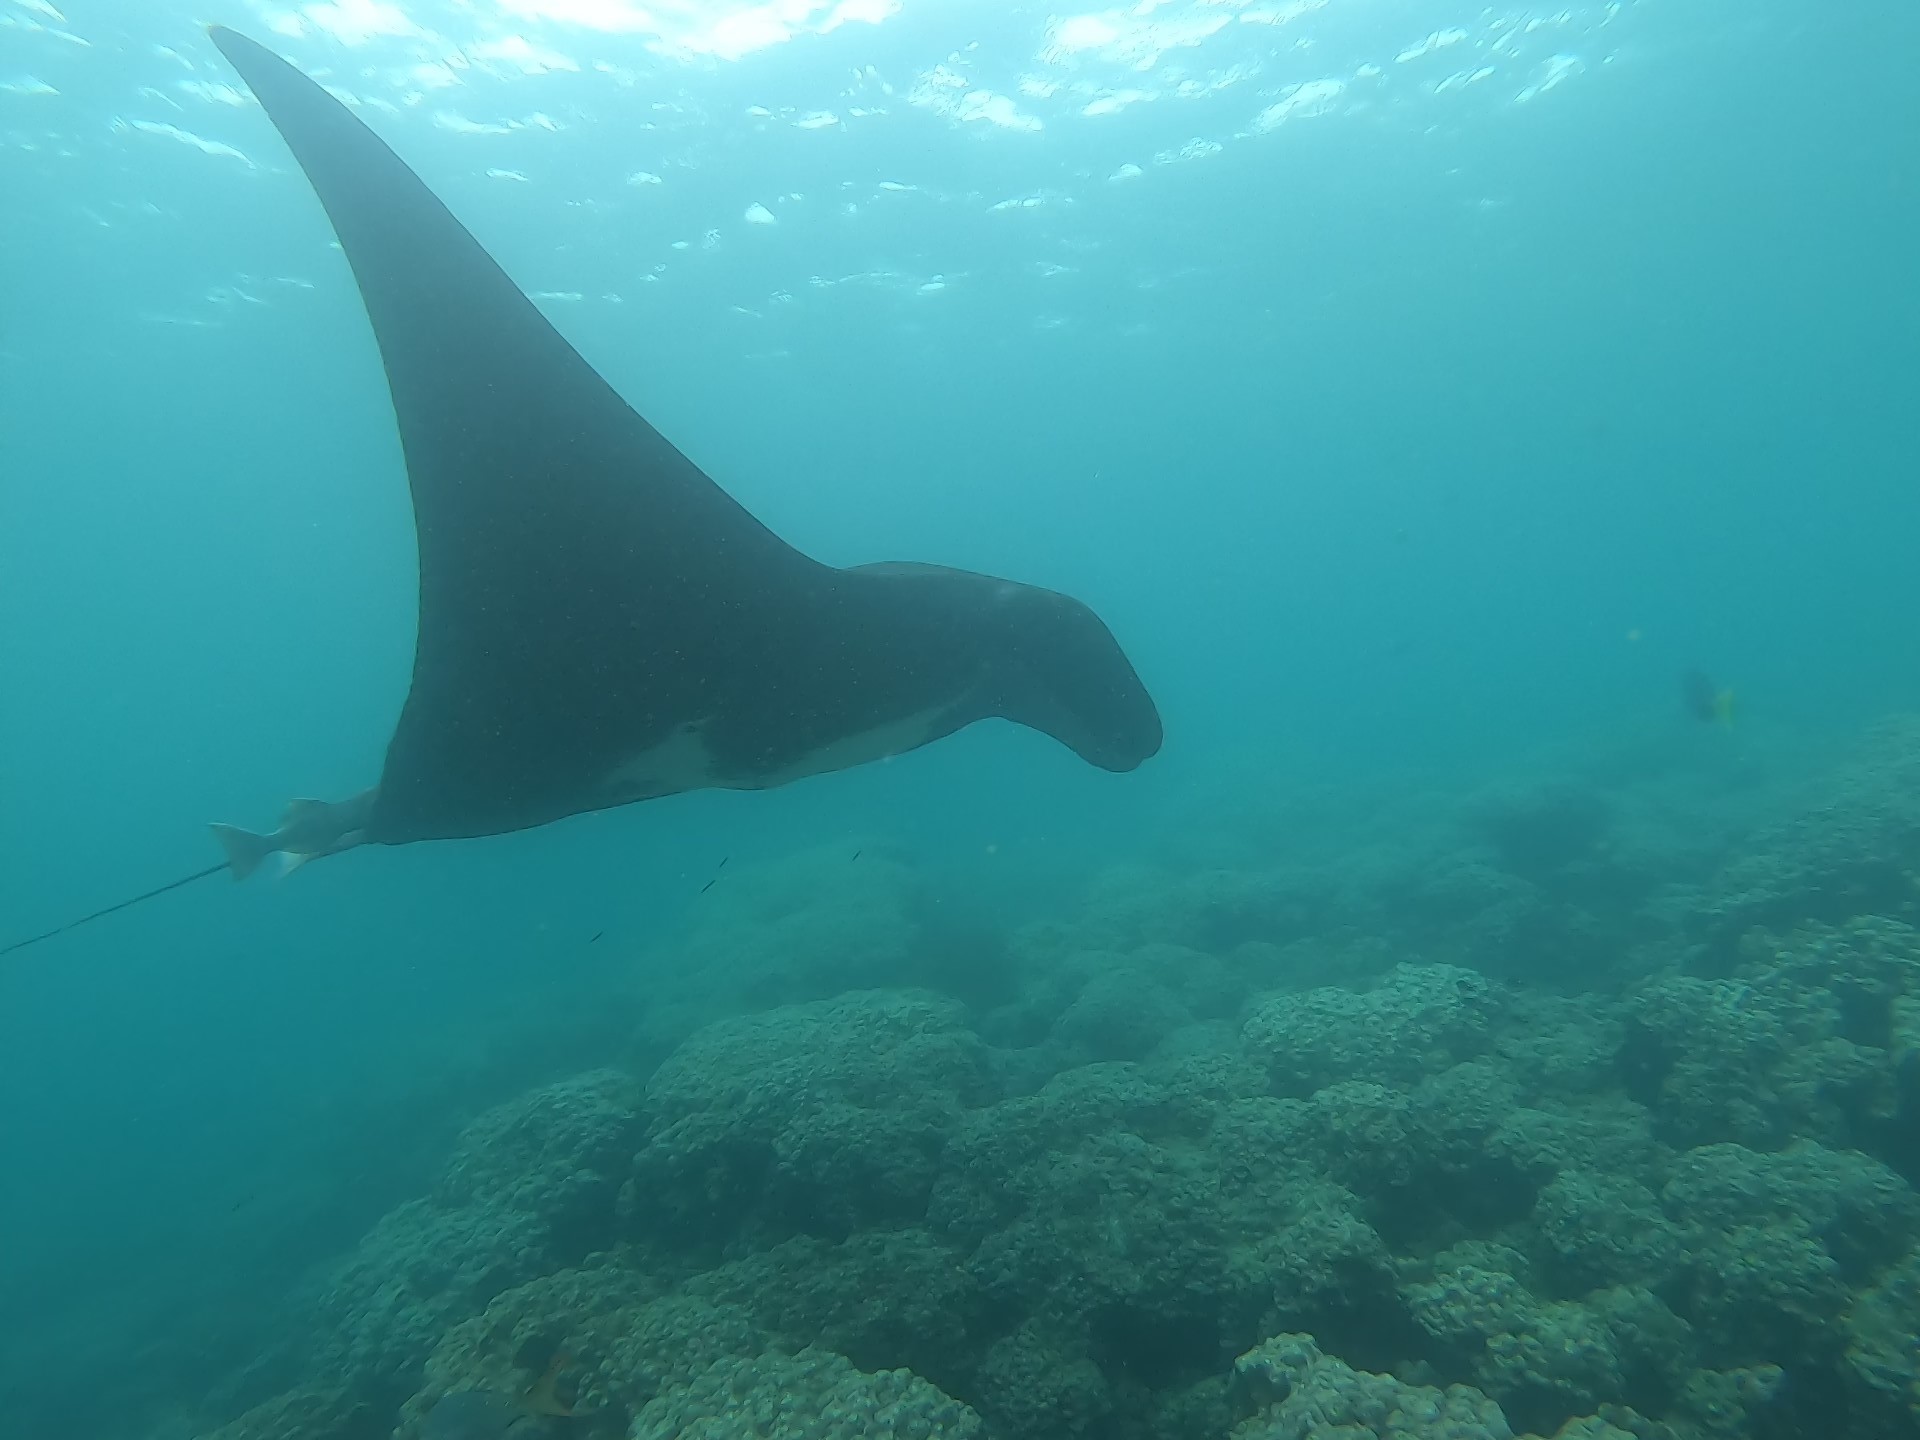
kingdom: Animalia
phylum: Chordata
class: Elasmobranchii
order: Myliobatiformes
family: Myliobatidae
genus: Mobula
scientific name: Mobula birostris
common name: Manta ray
